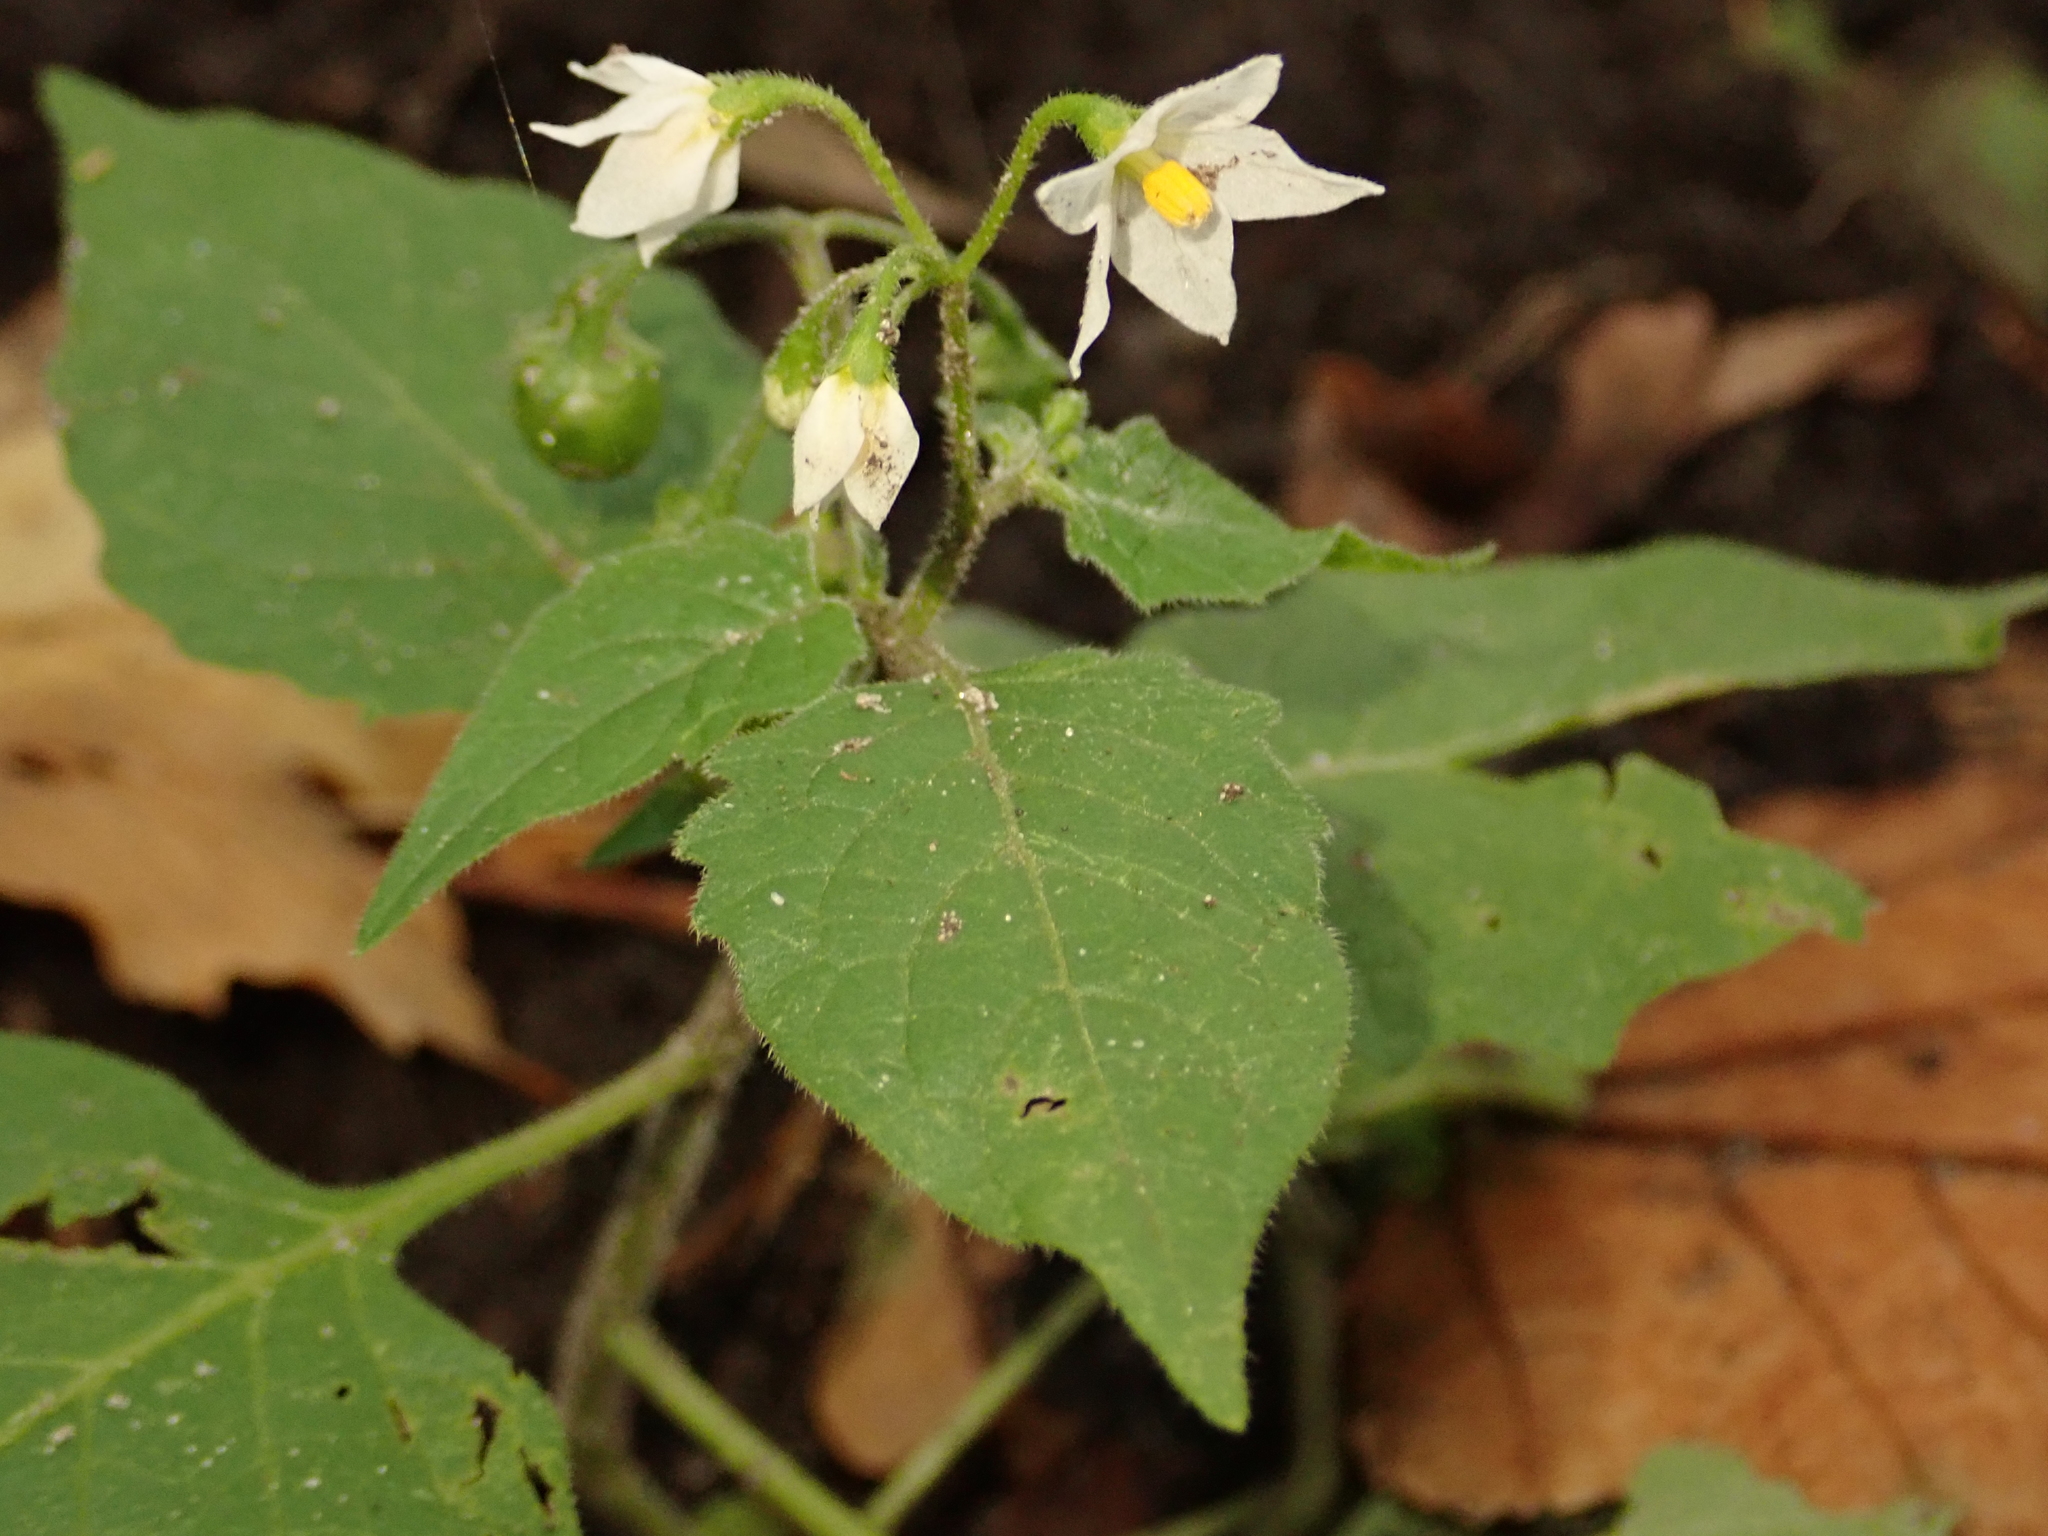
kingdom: Plantae
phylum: Tracheophyta
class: Magnoliopsida
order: Solanales
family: Solanaceae
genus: Solanum
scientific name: Solanum nigrum
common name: Black nightshade
